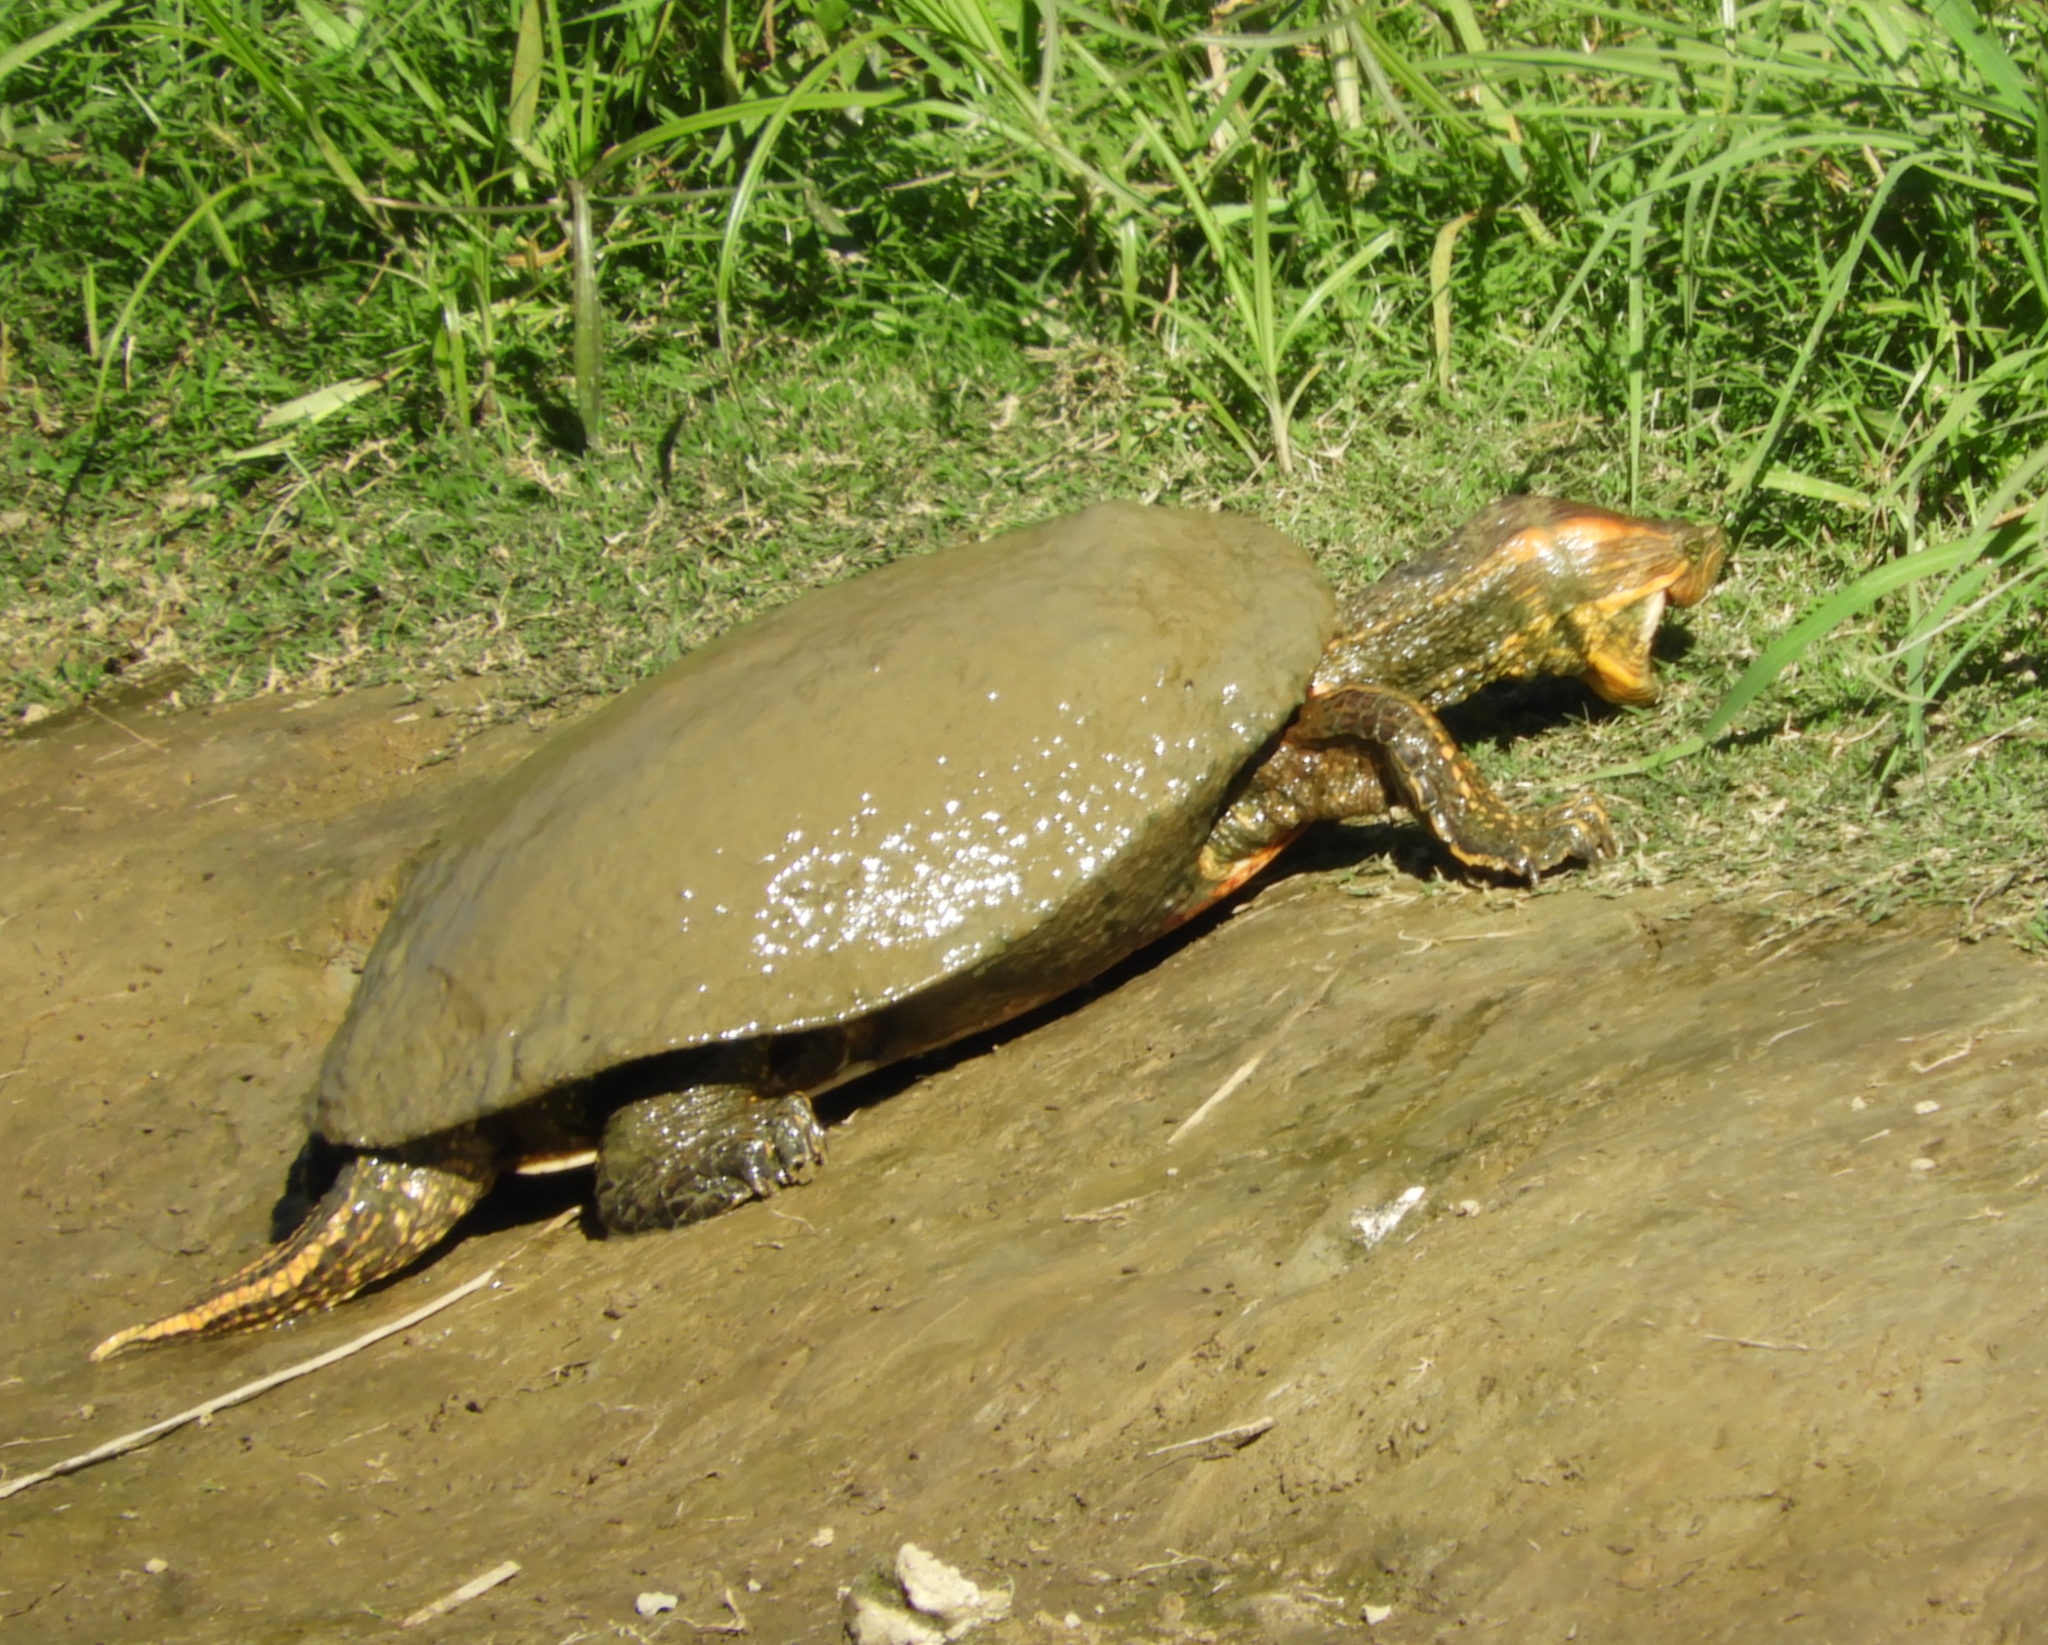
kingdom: Animalia
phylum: Chordata
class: Testudines
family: Emydidae
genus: Trachemys
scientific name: Trachemys ornata
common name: Ornate slider
